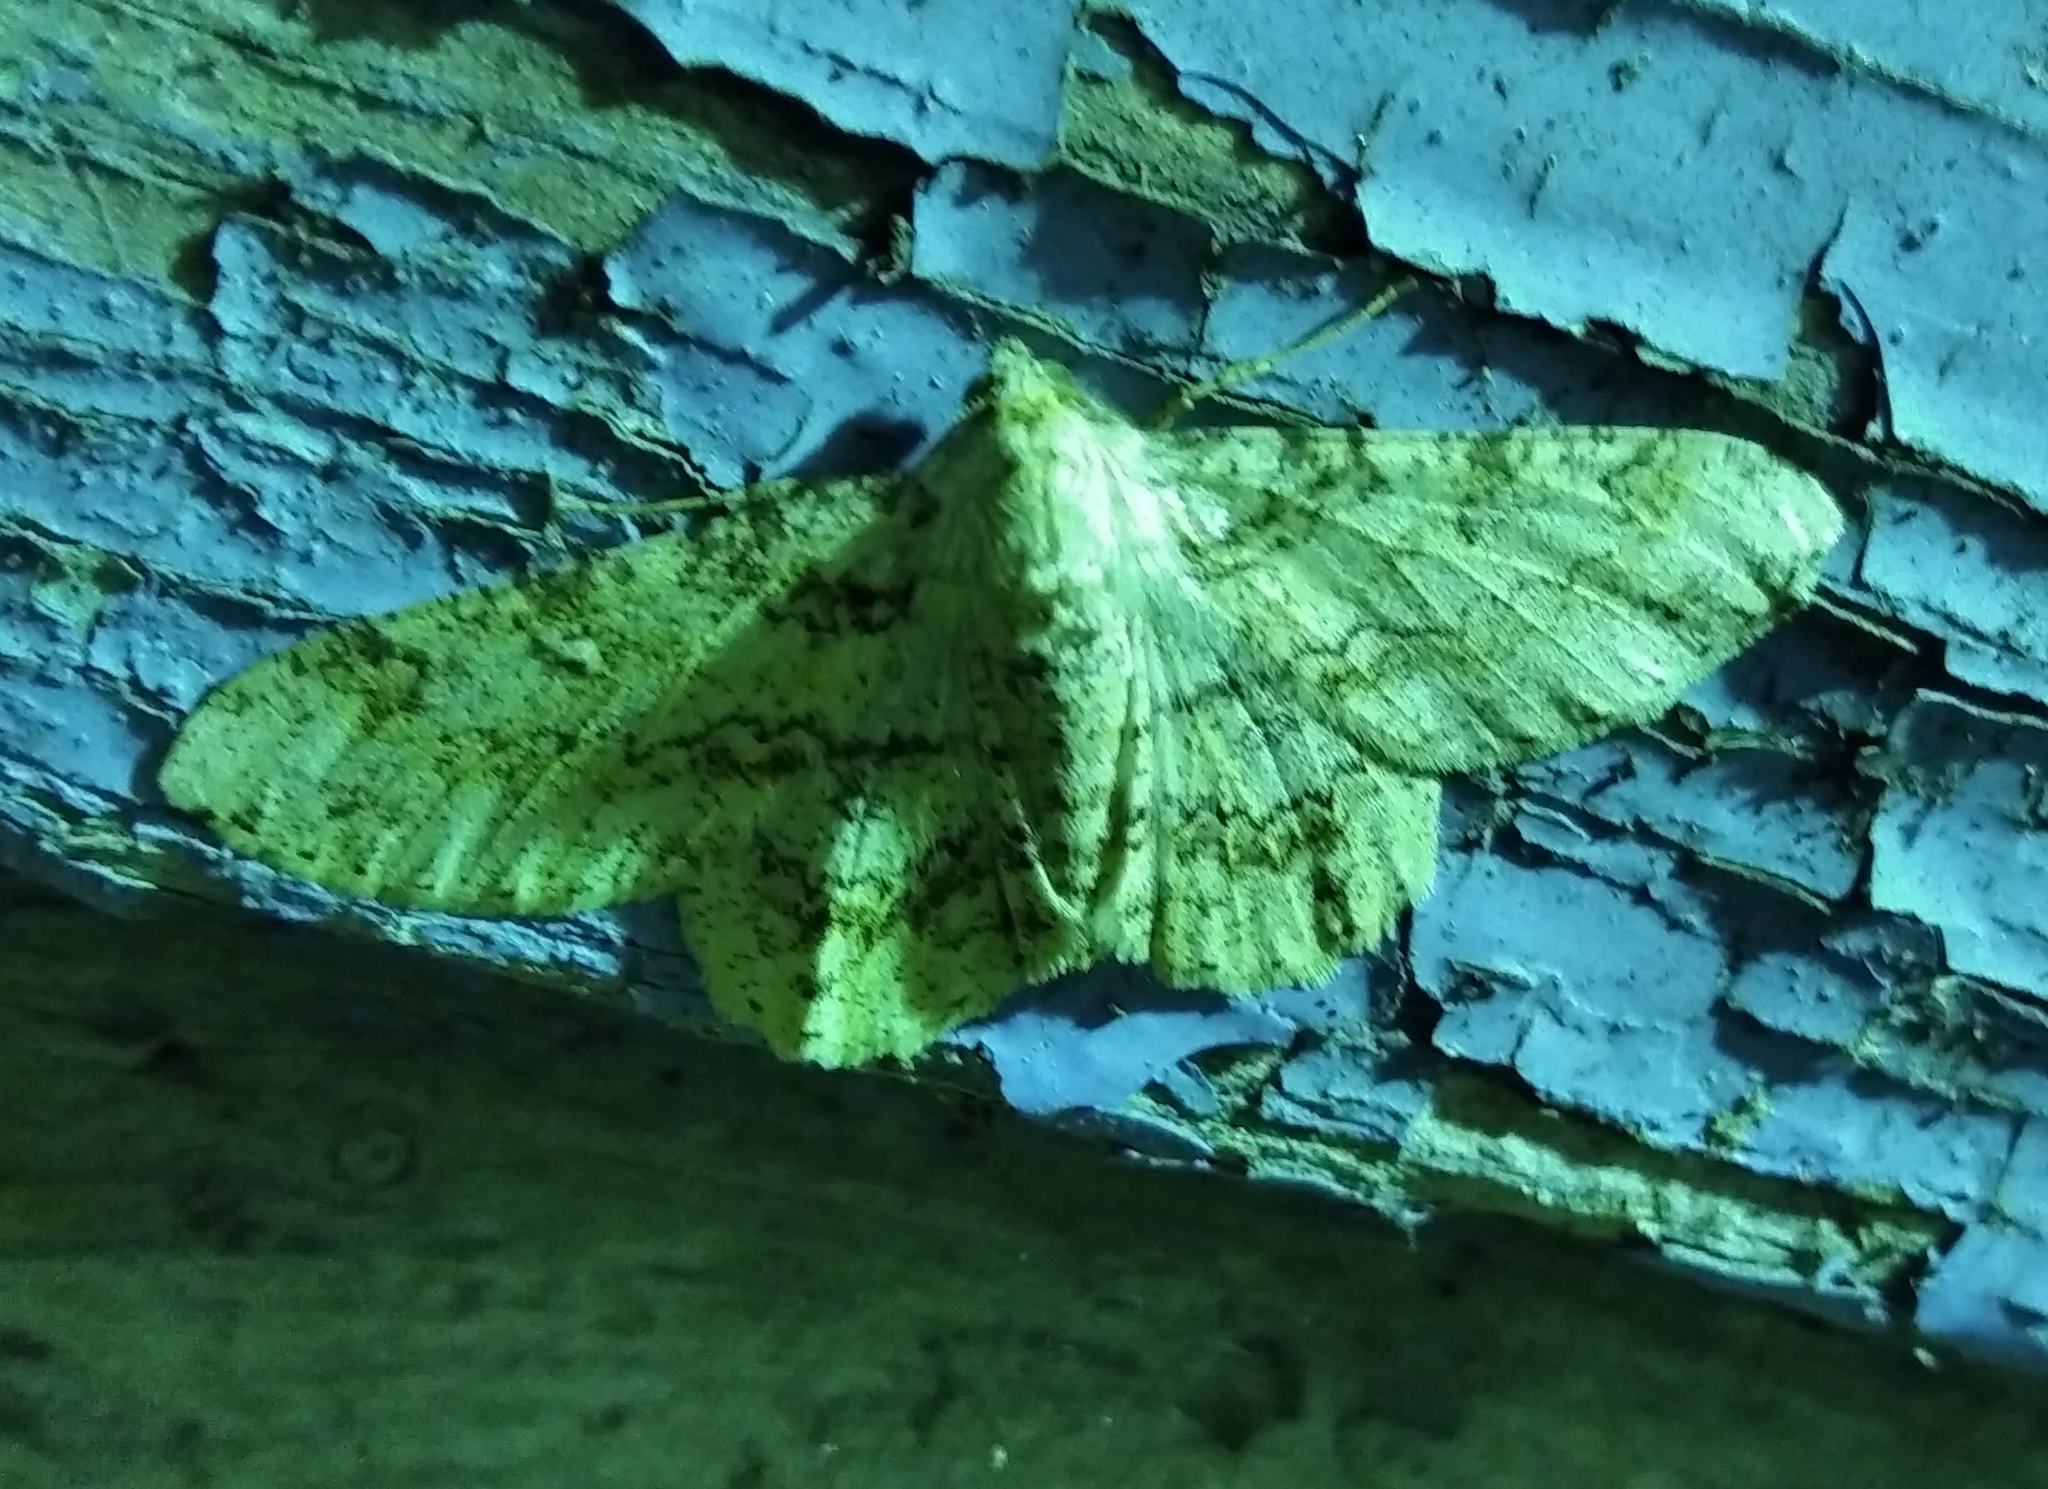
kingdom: Animalia
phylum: Arthropoda
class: Insecta
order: Lepidoptera
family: Geometridae
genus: Ascotis
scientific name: Ascotis selenaria
